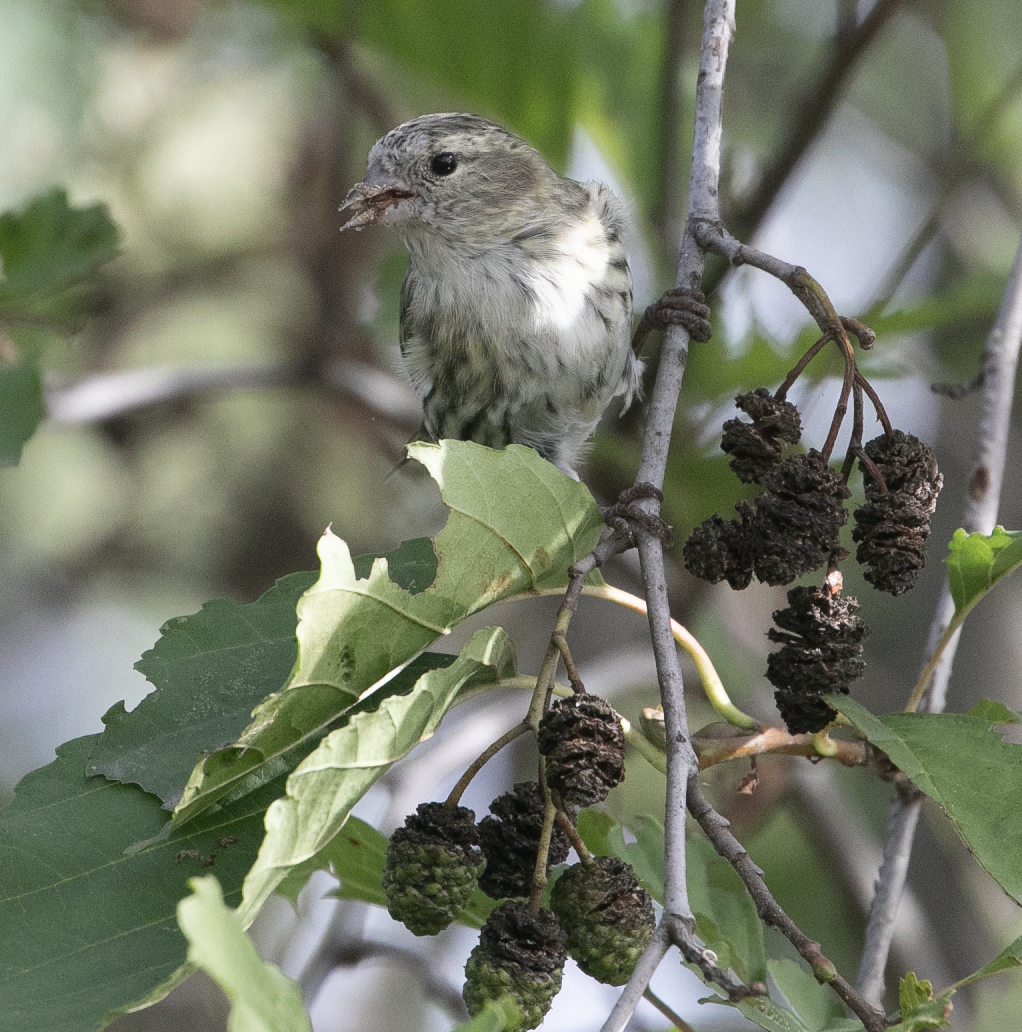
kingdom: Animalia
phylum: Chordata
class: Aves
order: Passeriformes
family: Fringillidae
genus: Spinus
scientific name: Spinus spinus
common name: Eurasian siskin
